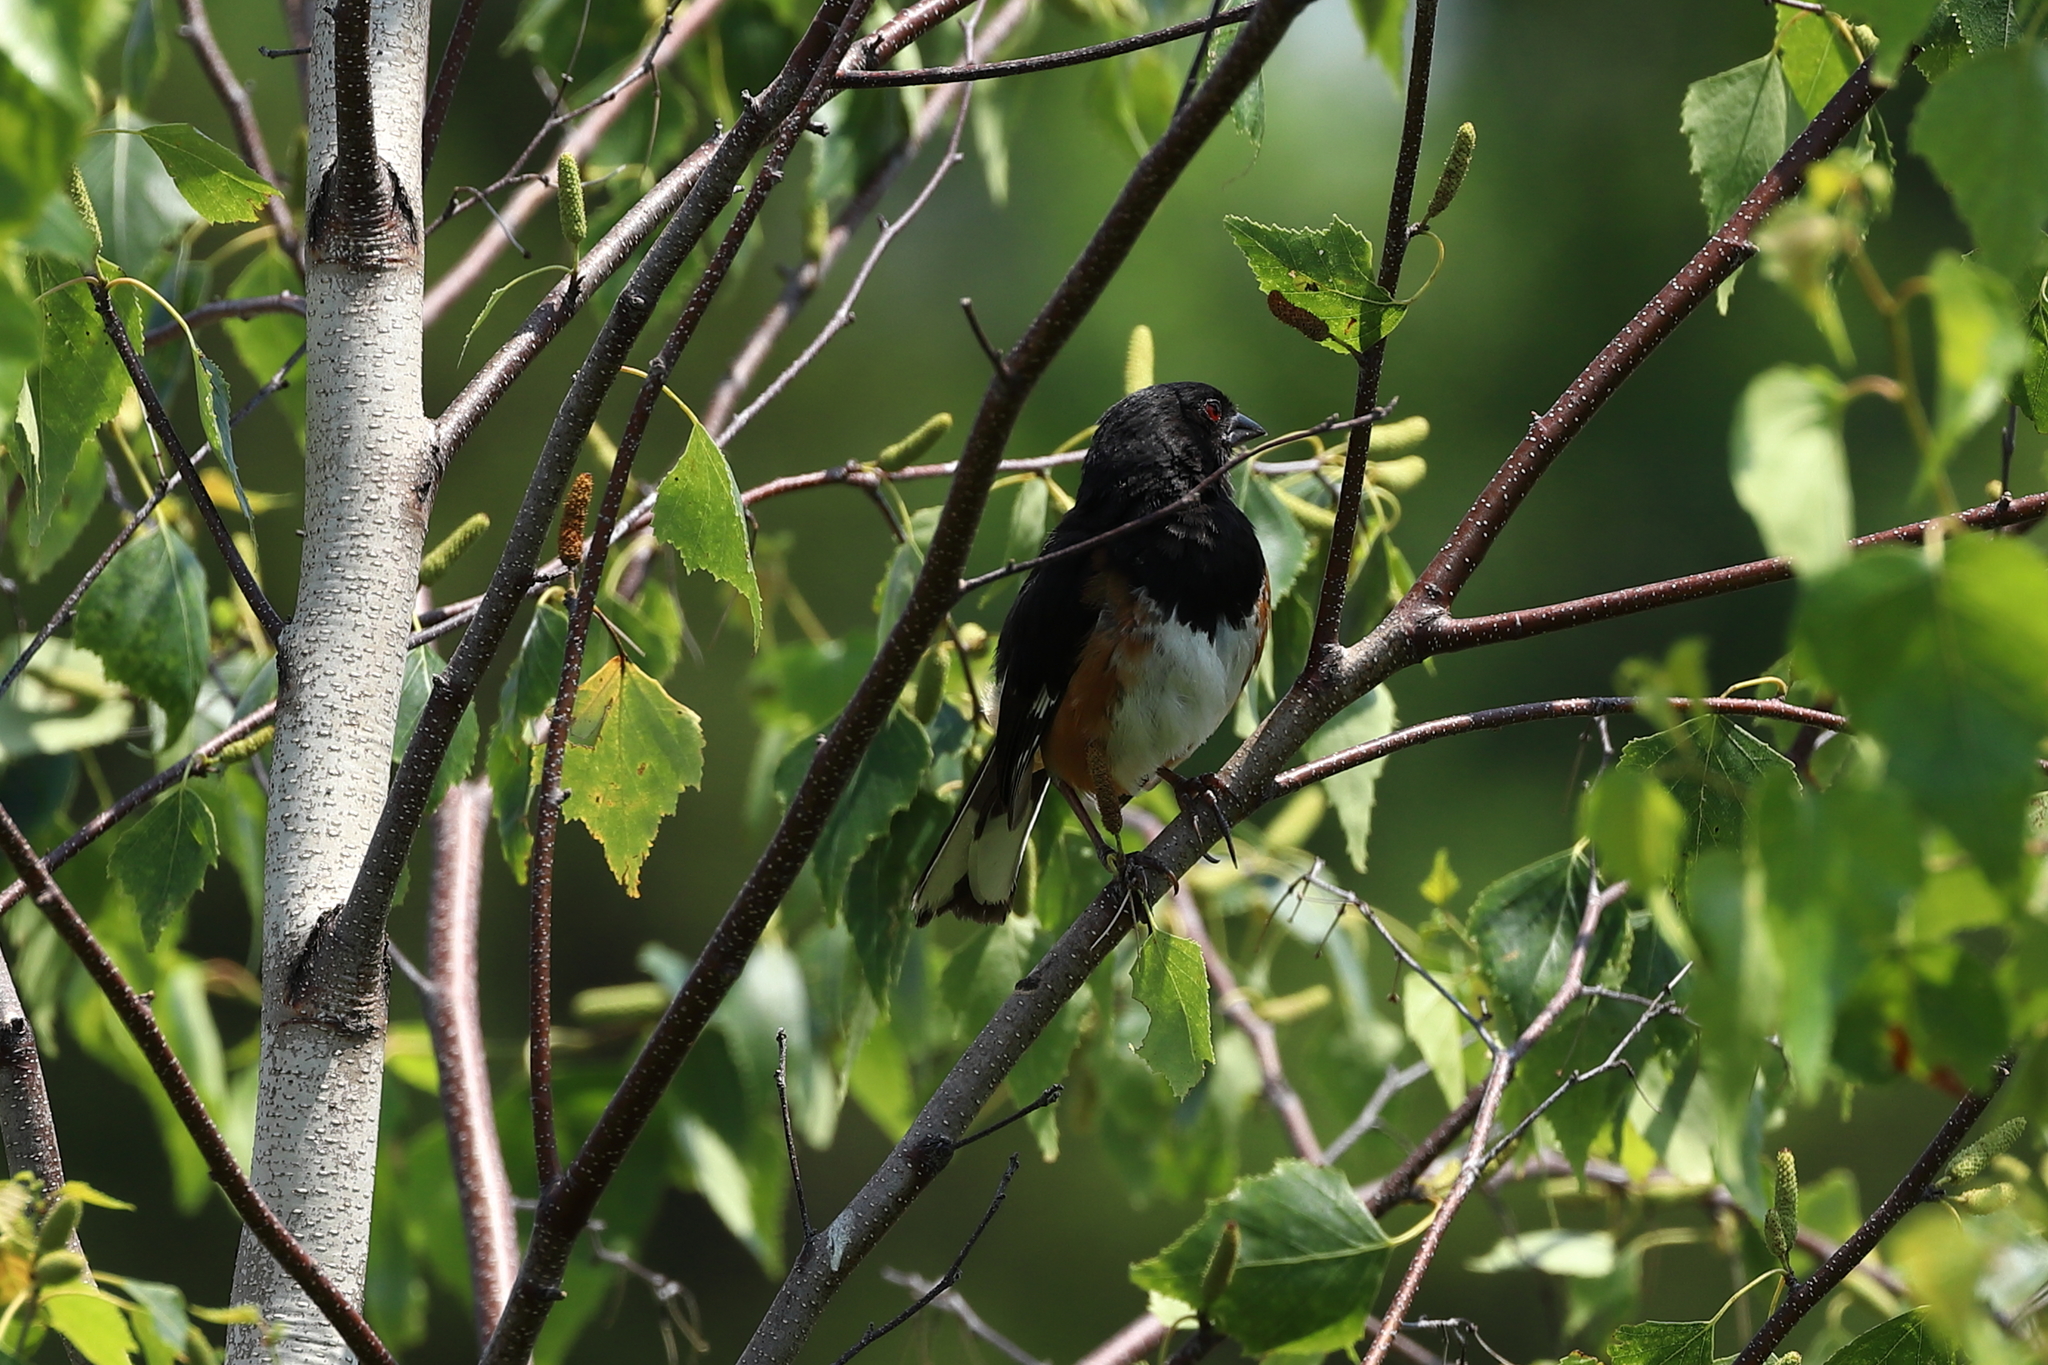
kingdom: Animalia
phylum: Chordata
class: Aves
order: Passeriformes
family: Passerellidae
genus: Pipilo
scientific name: Pipilo erythrophthalmus
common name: Eastern towhee
